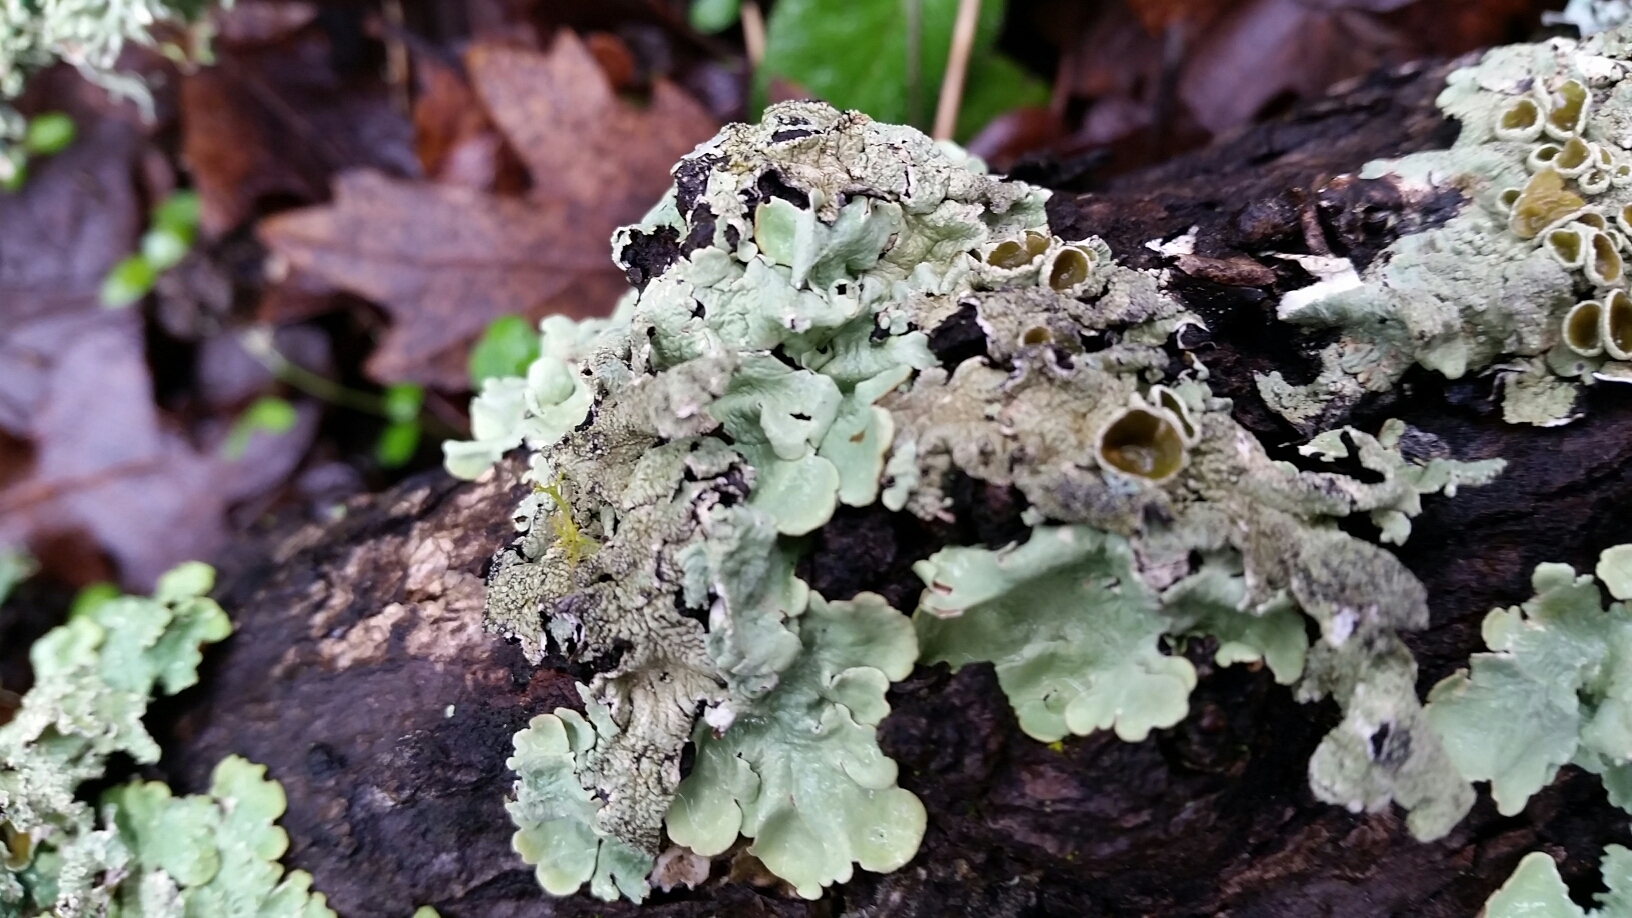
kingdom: Fungi
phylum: Ascomycota
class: Lecanoromycetes
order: Lecanorales
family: Parmeliaceae
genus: Flavoparmelia
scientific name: Flavoparmelia caperata
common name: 40-mile per hour lichen
